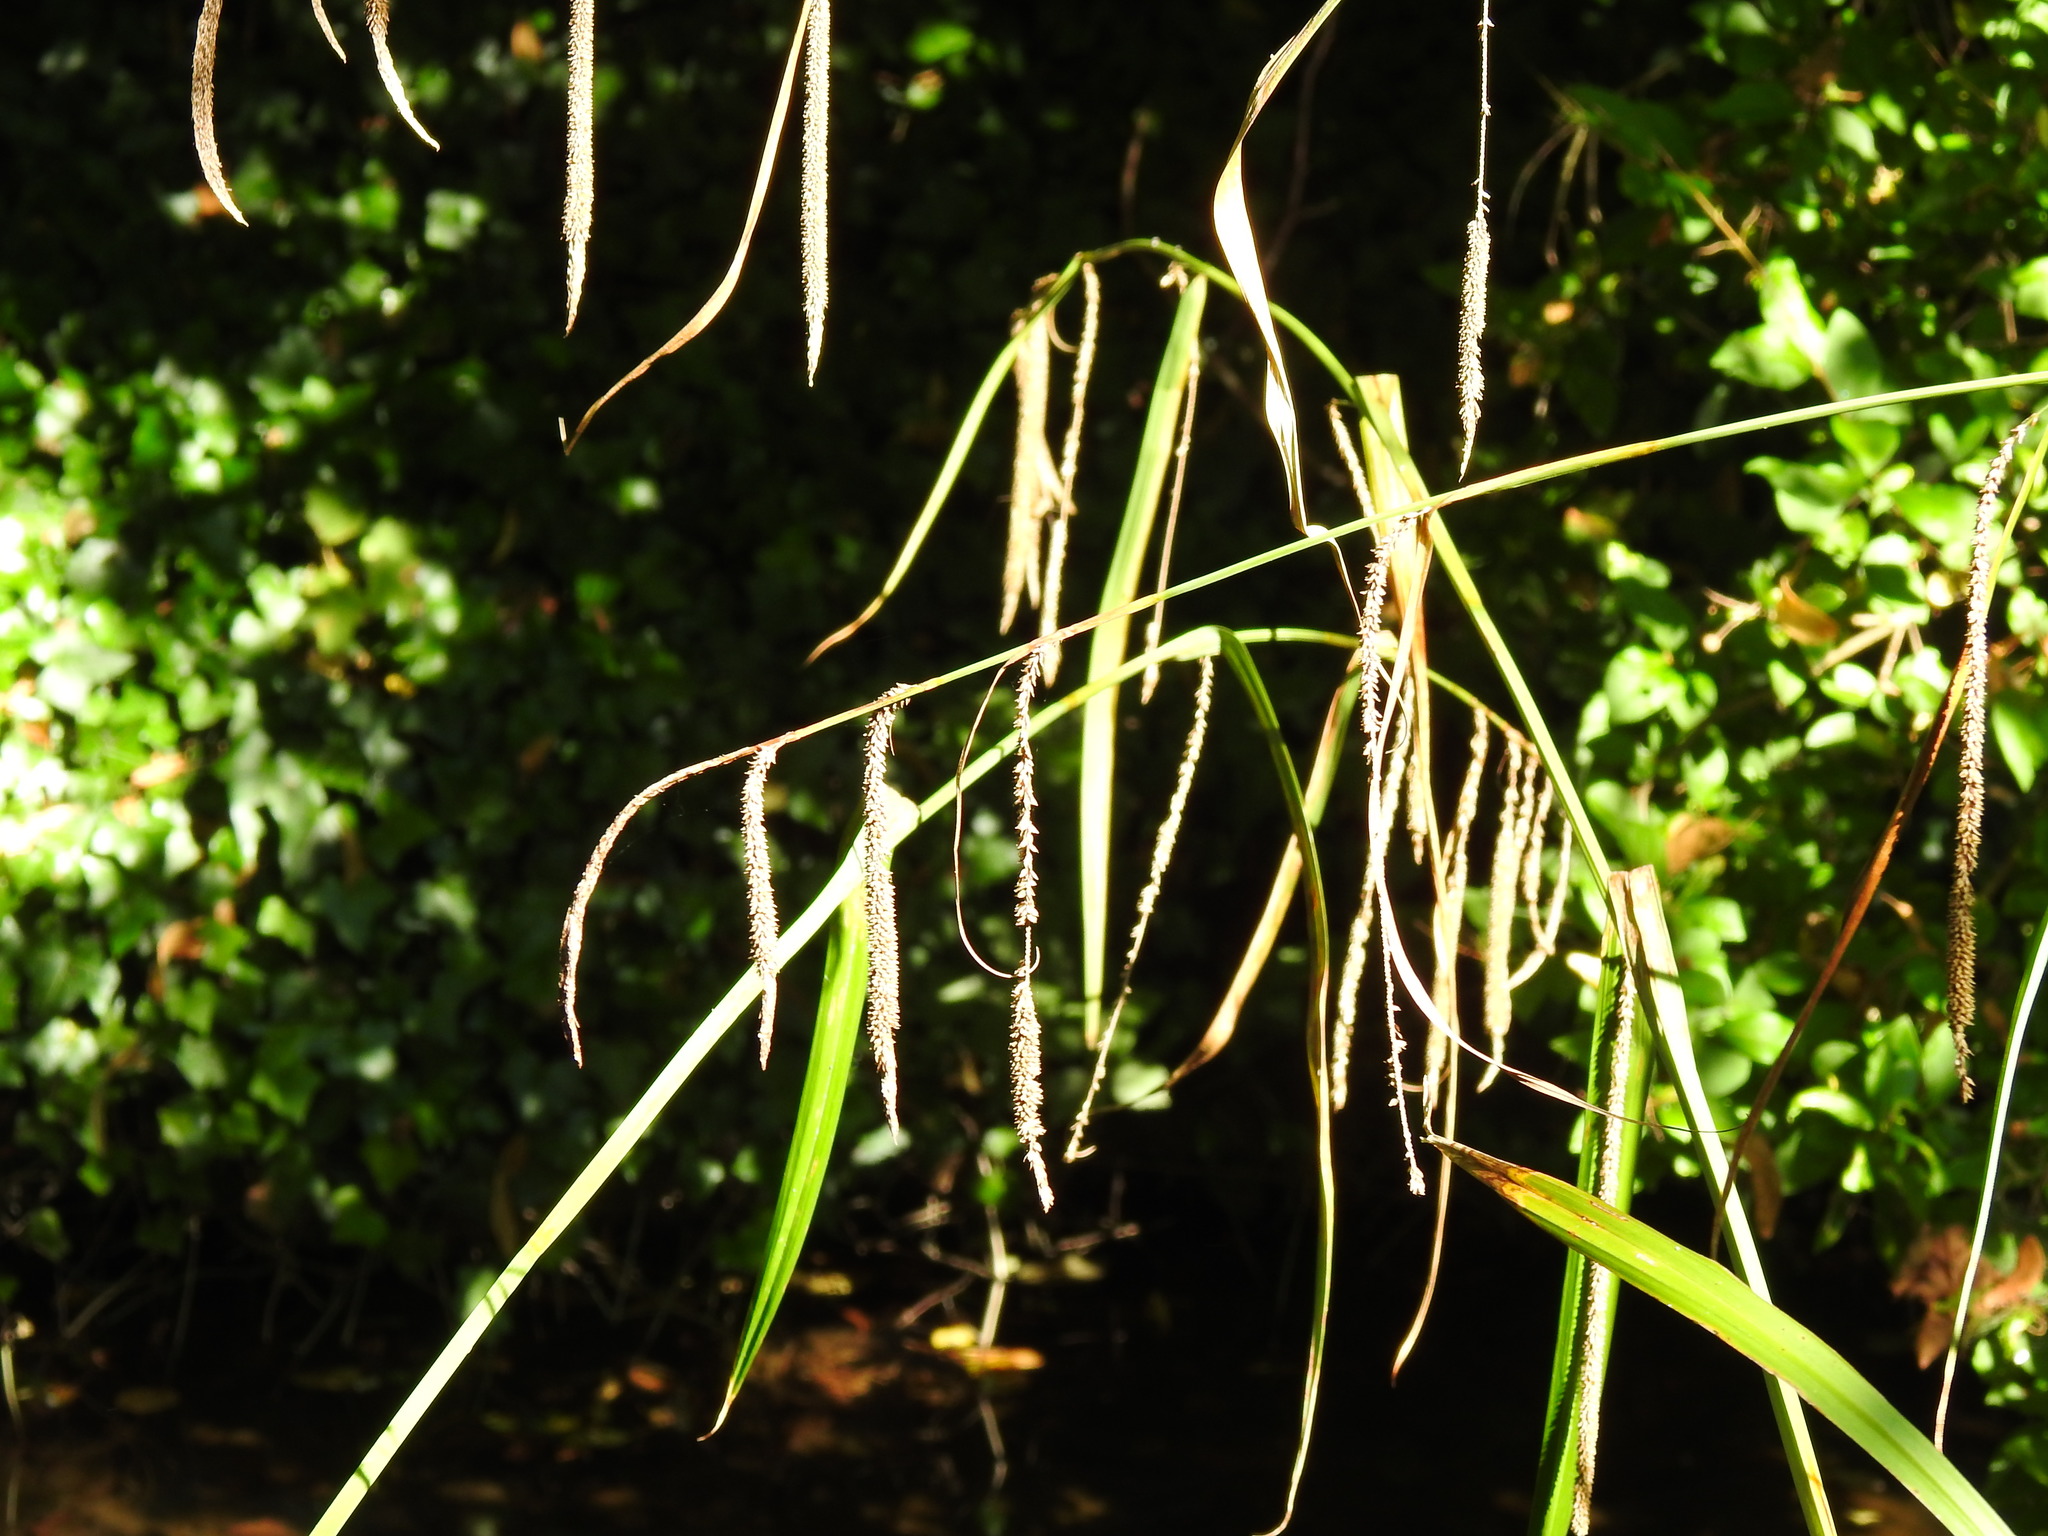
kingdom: Plantae
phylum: Tracheophyta
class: Liliopsida
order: Poales
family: Cyperaceae
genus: Carex
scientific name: Carex pendula
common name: Pendulous sedge
